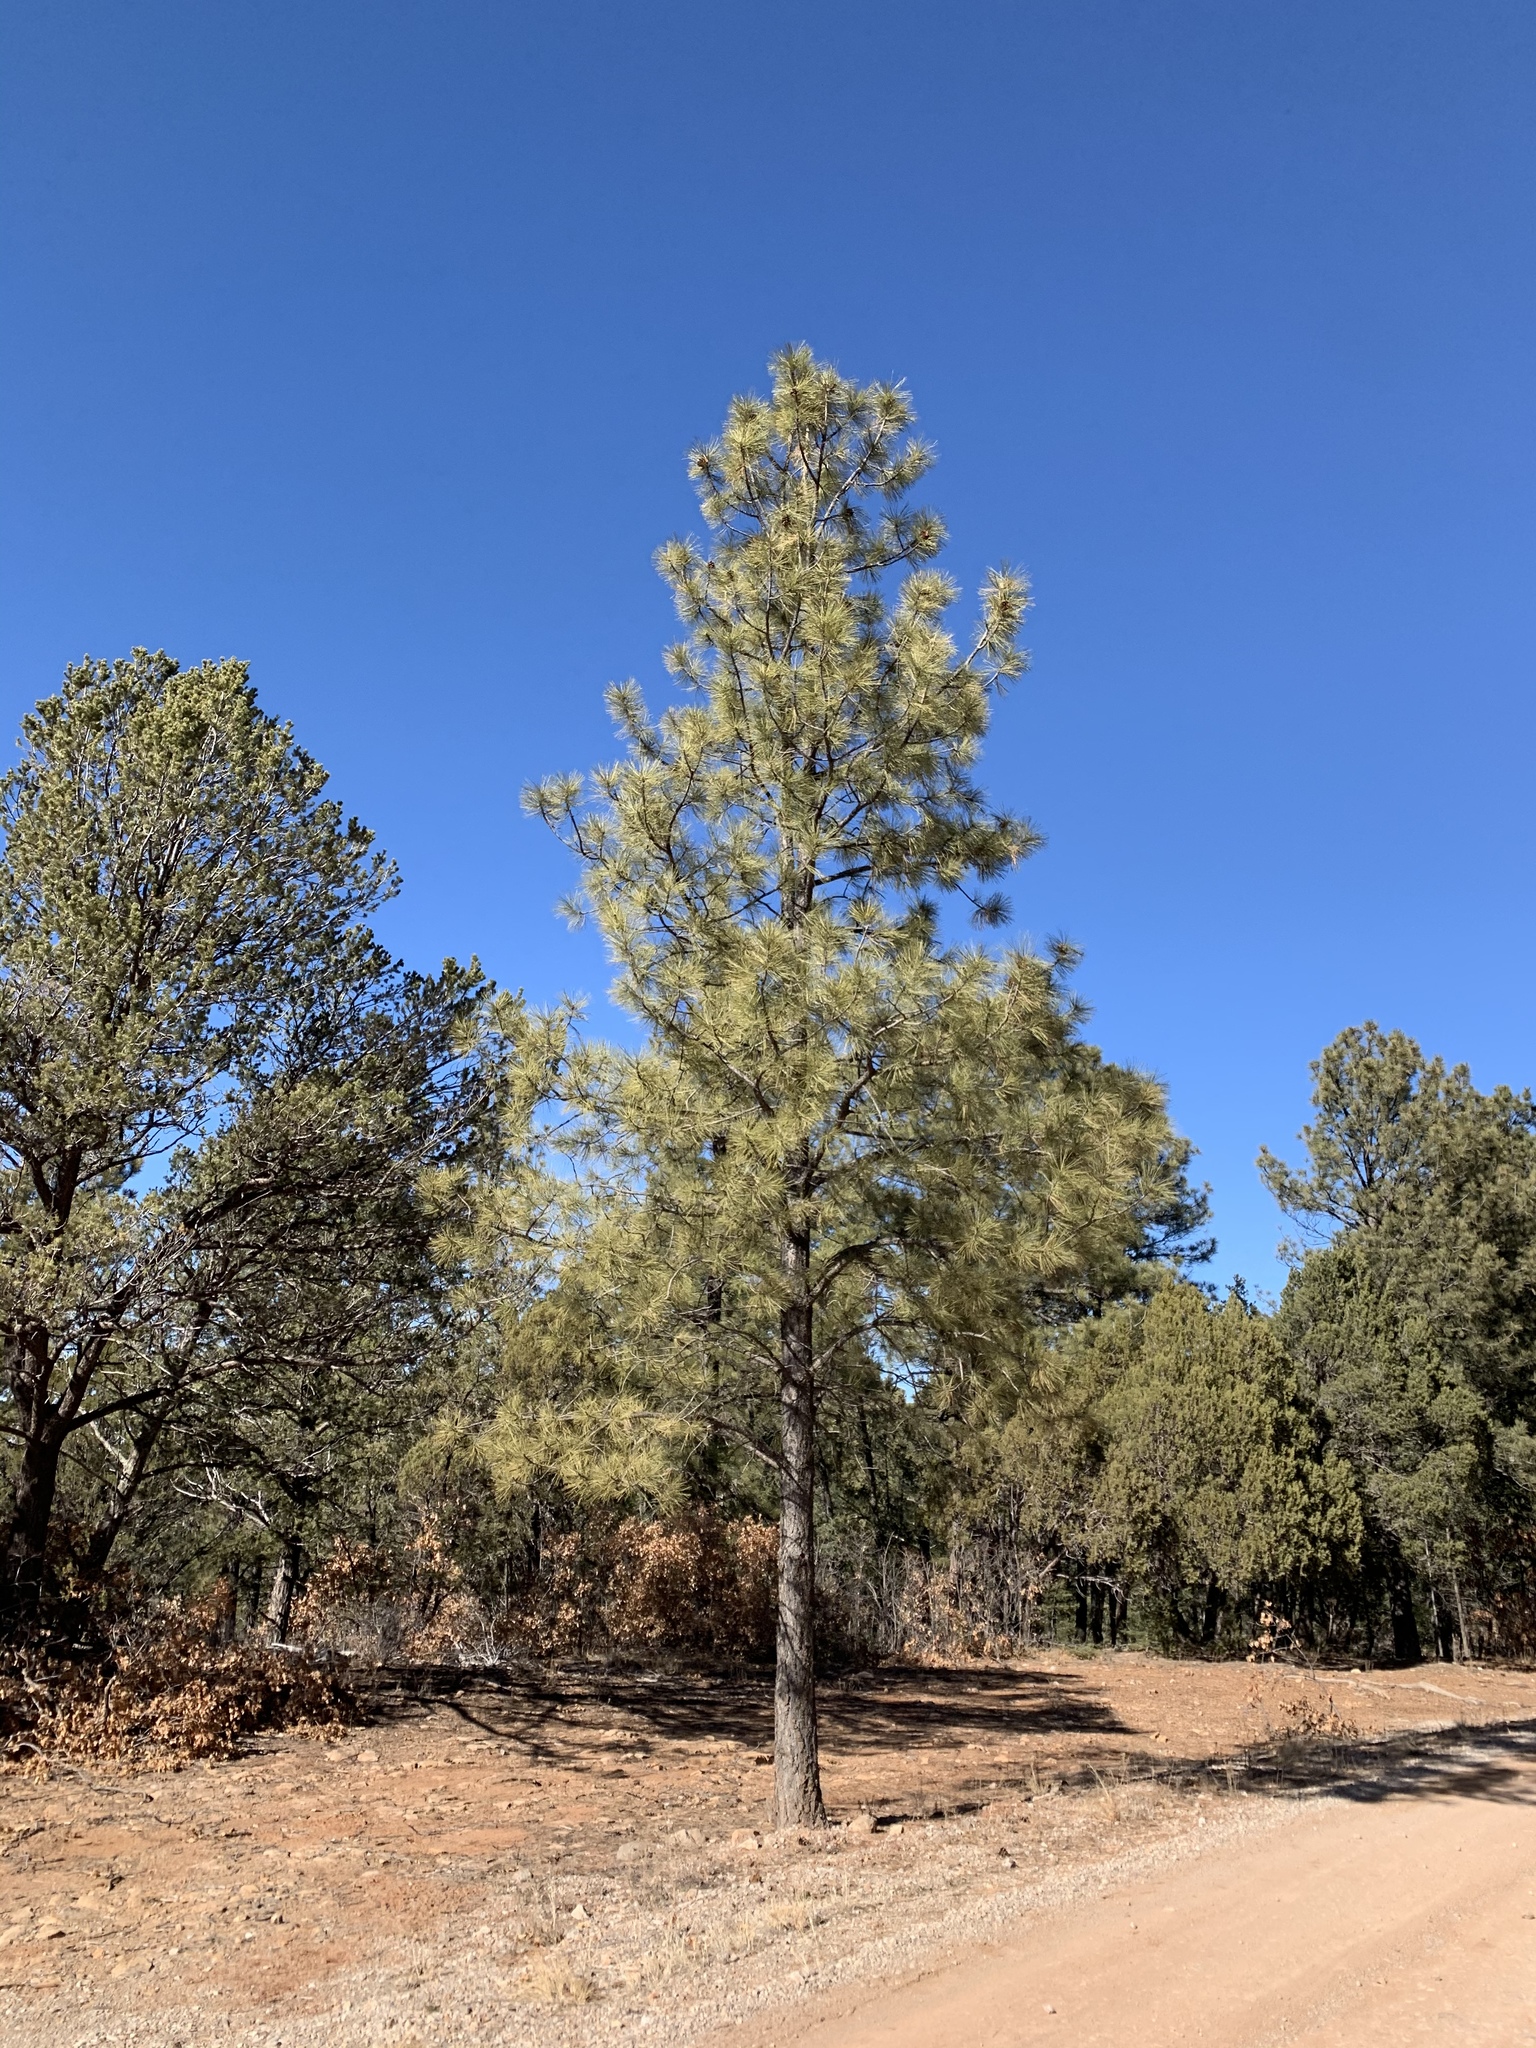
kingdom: Plantae
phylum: Tracheophyta
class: Pinopsida
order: Pinales
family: Pinaceae
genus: Pinus
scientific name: Pinus ponderosa
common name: Western yellow-pine
